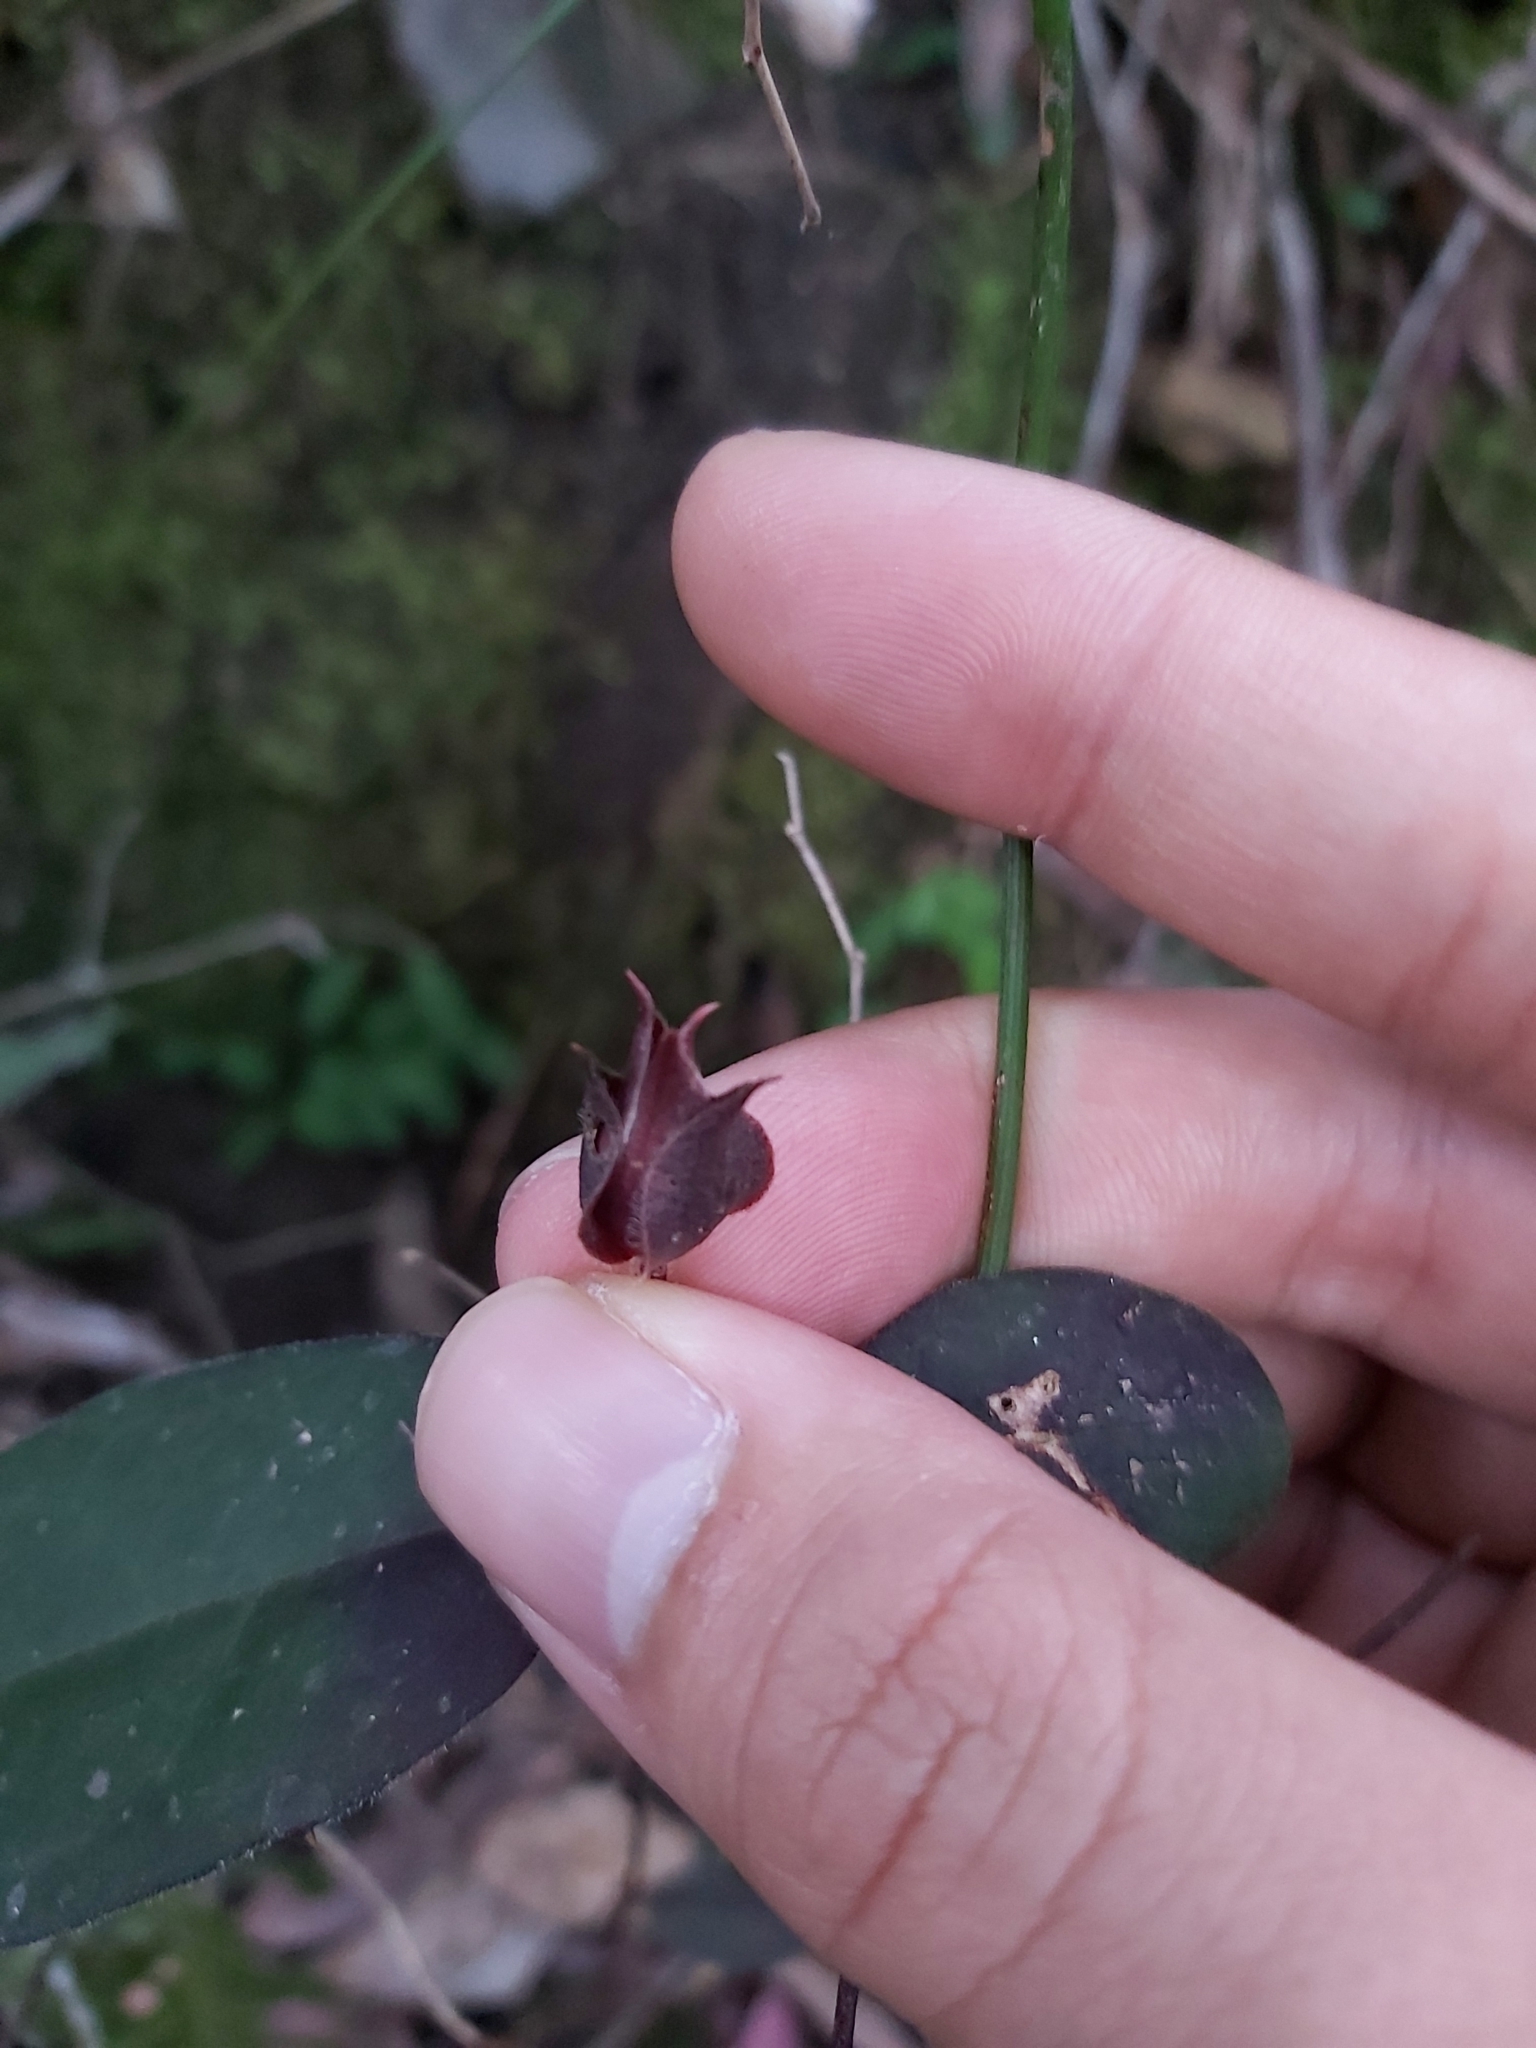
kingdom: Plantae
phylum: Tracheophyta
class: Magnoliopsida
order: Dilleniales
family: Dilleniaceae
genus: Hibbertia
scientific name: Hibbertia dentata
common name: Trailing guinea-flower
